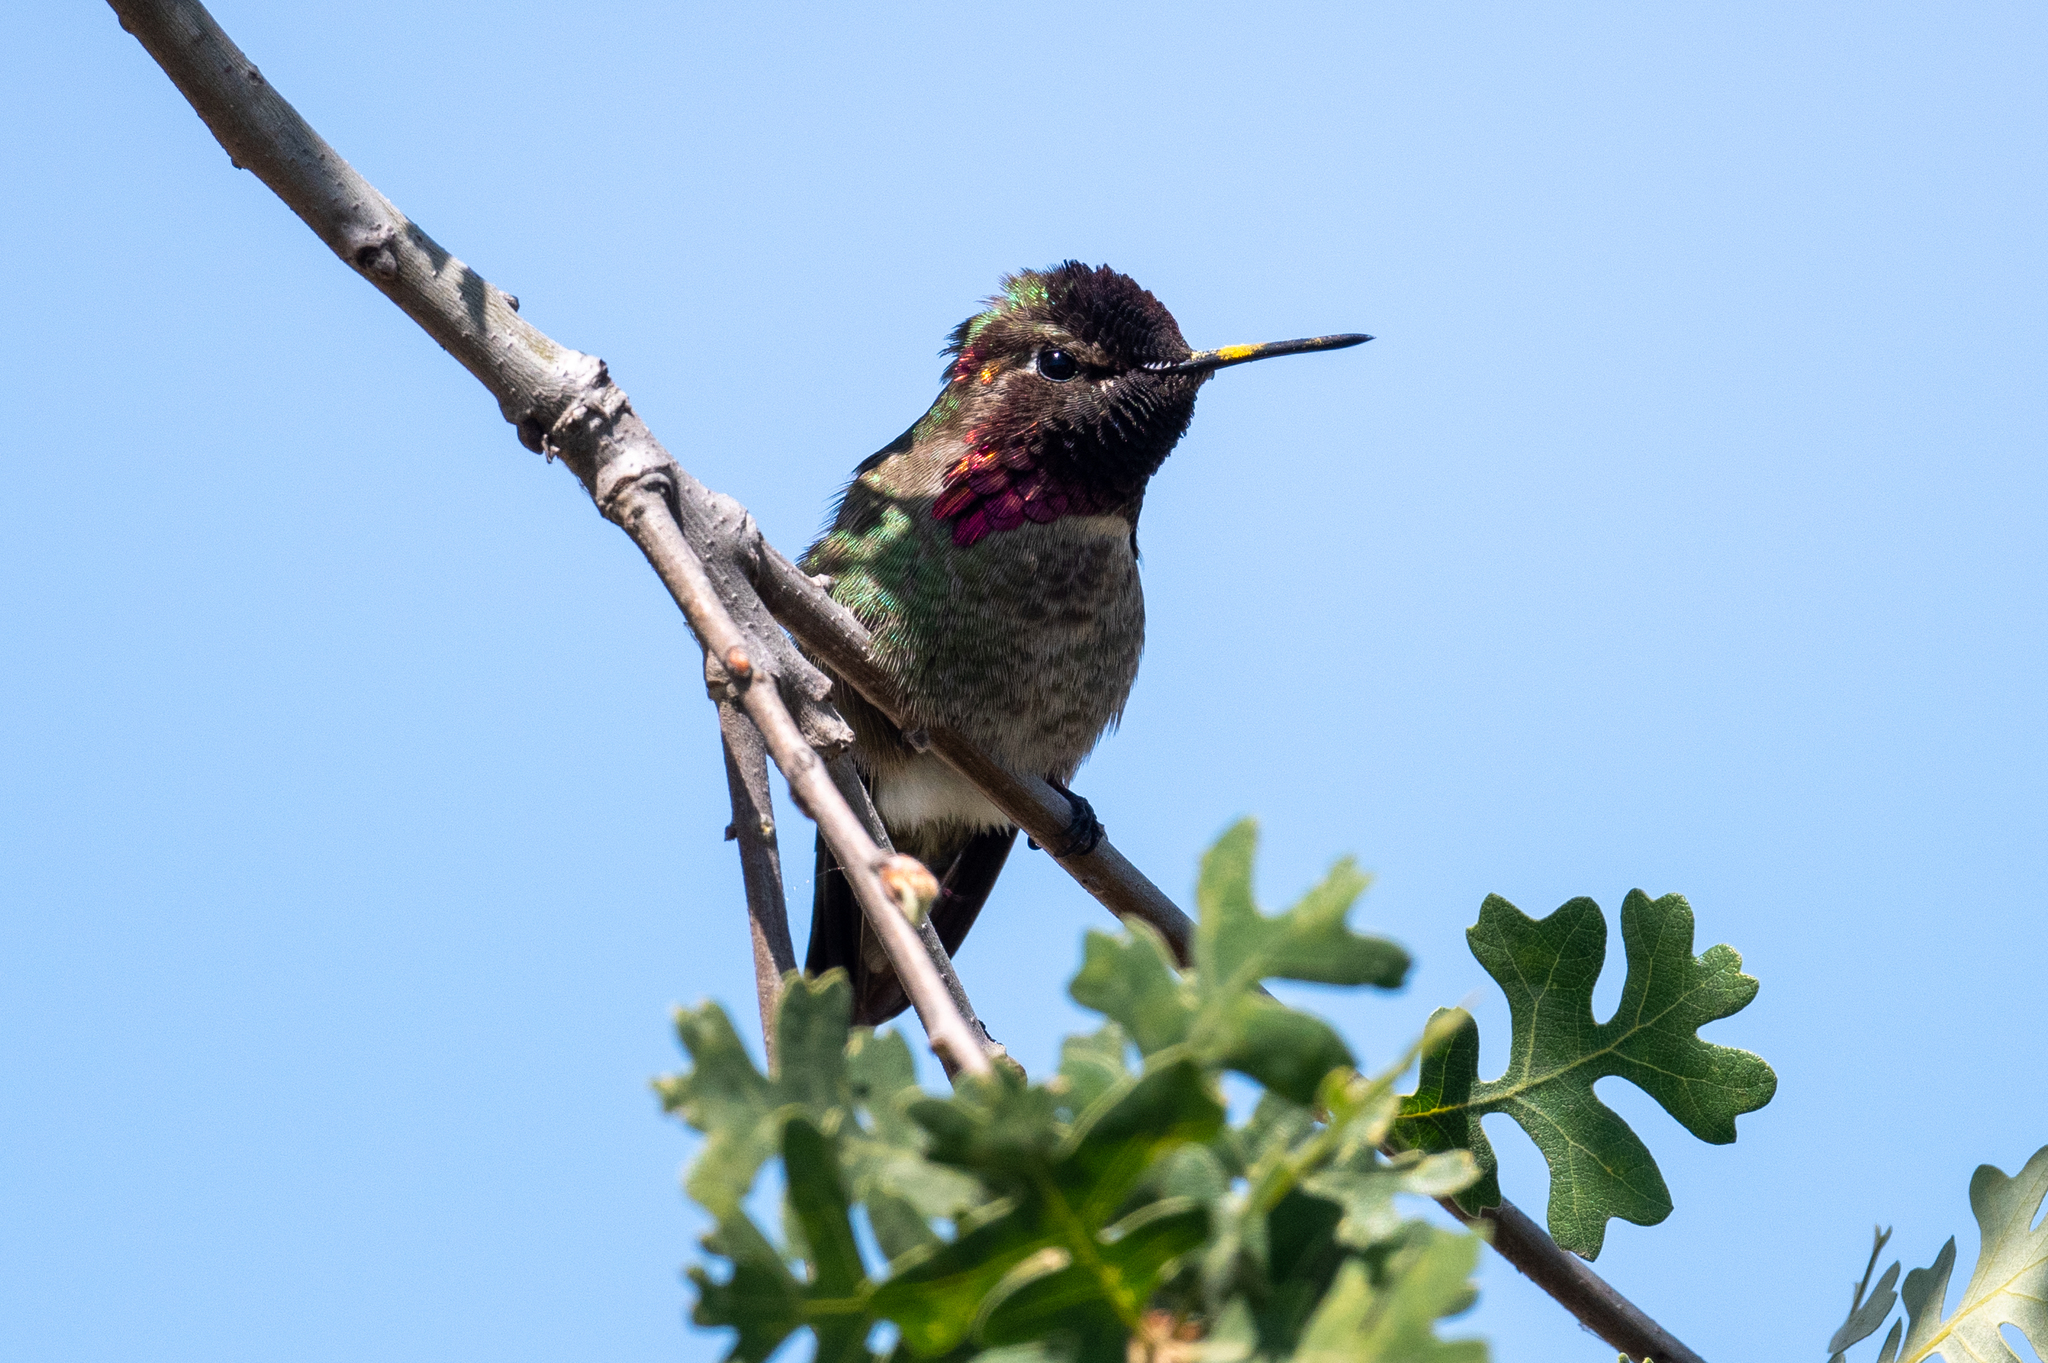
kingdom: Animalia
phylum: Chordata
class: Aves
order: Apodiformes
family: Trochilidae
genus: Calypte
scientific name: Calypte anna
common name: Anna's hummingbird
